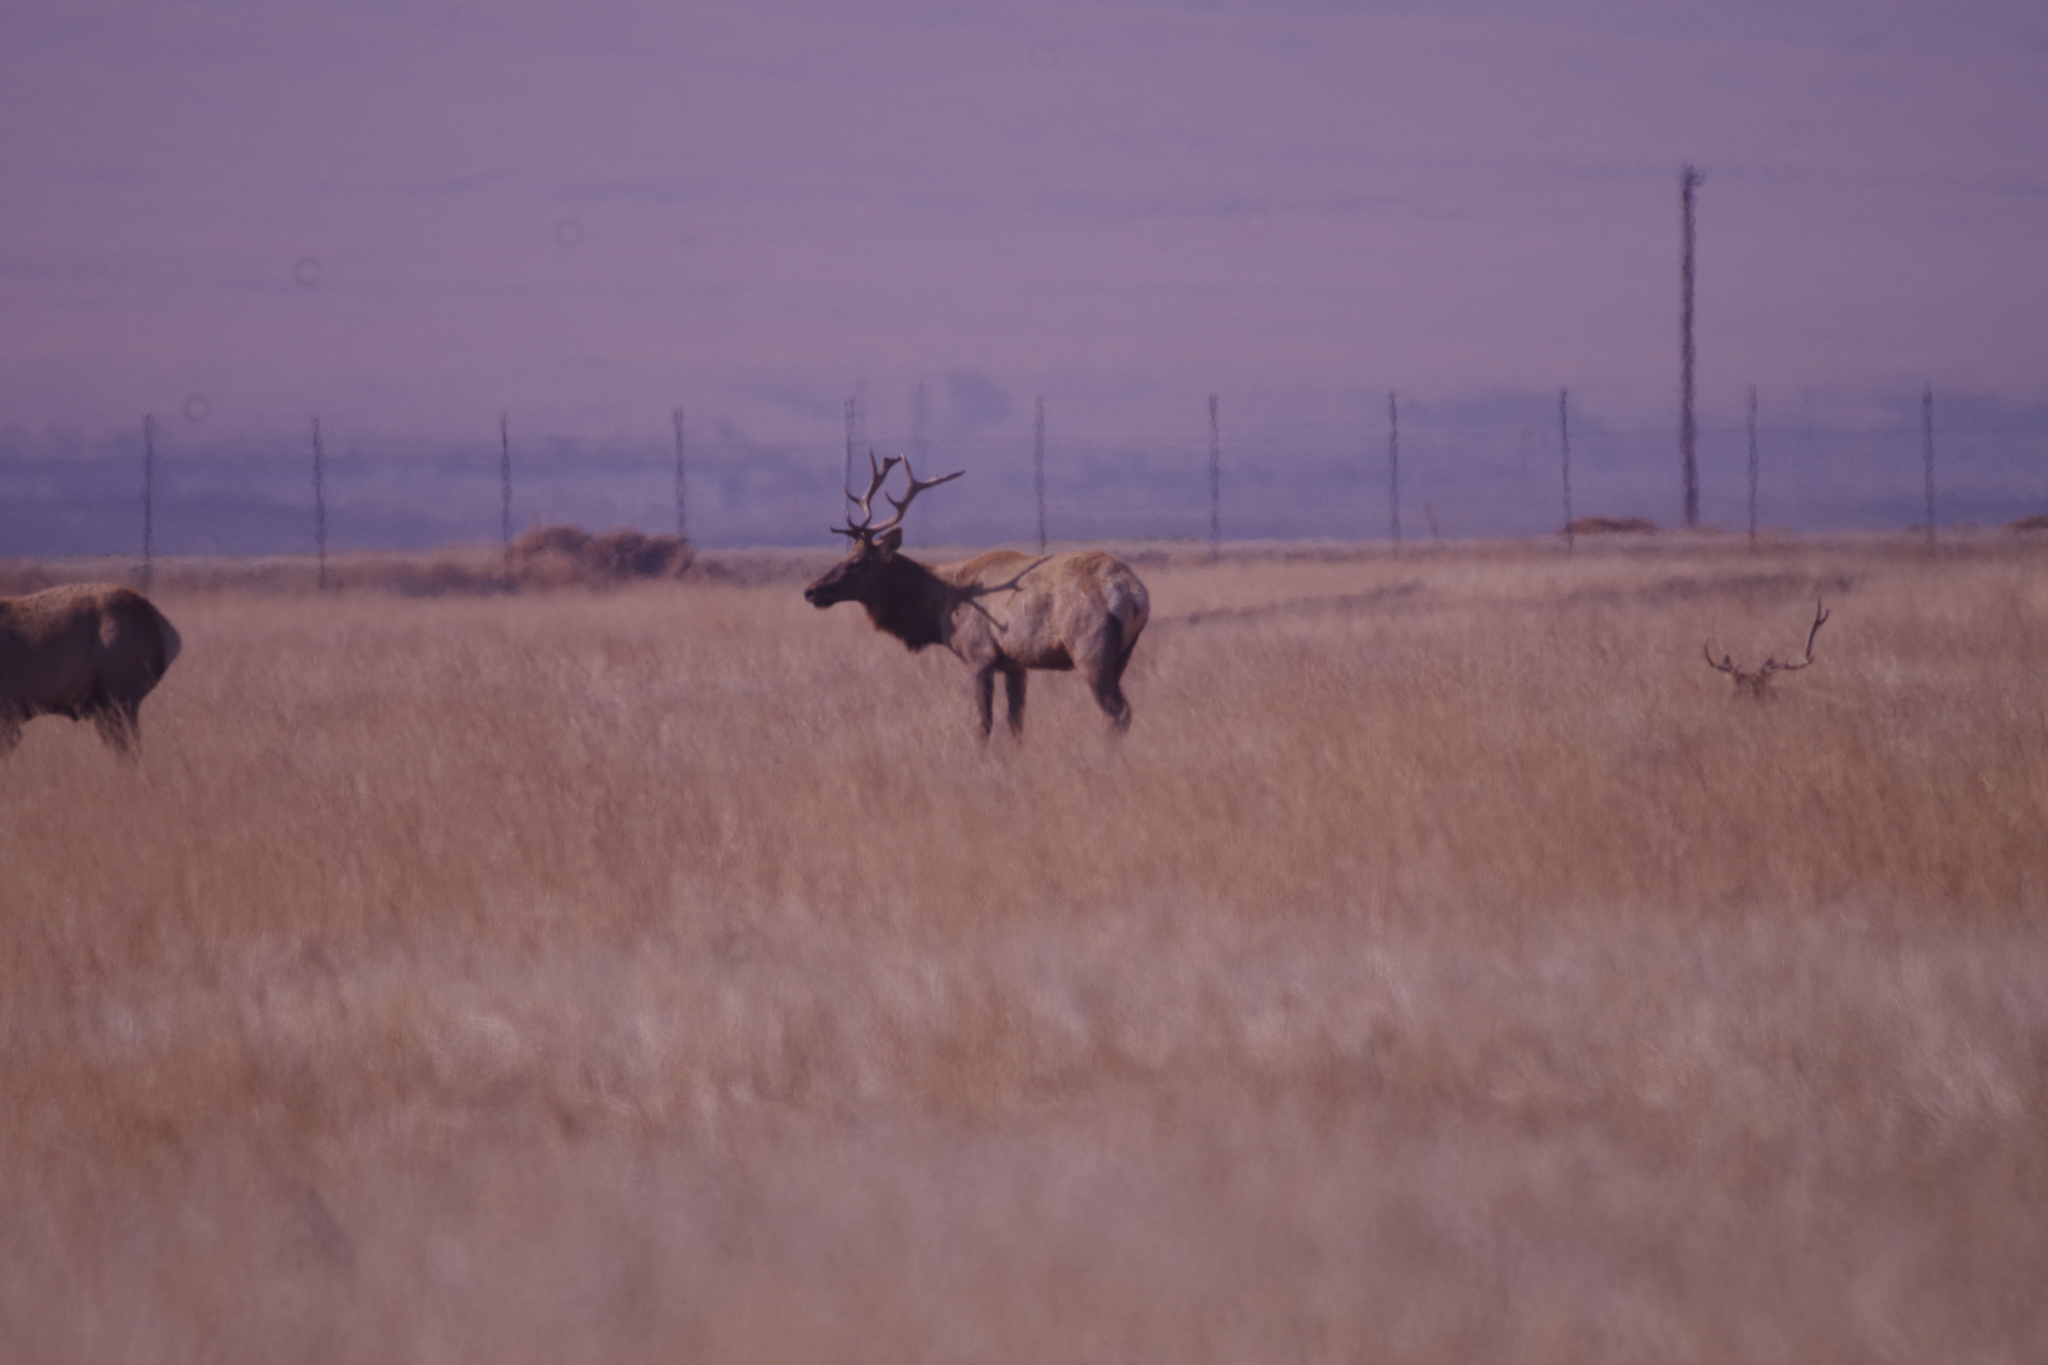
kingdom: Animalia
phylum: Chordata
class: Mammalia
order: Artiodactyla
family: Cervidae
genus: Cervus
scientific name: Cervus elaphus
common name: Red deer
